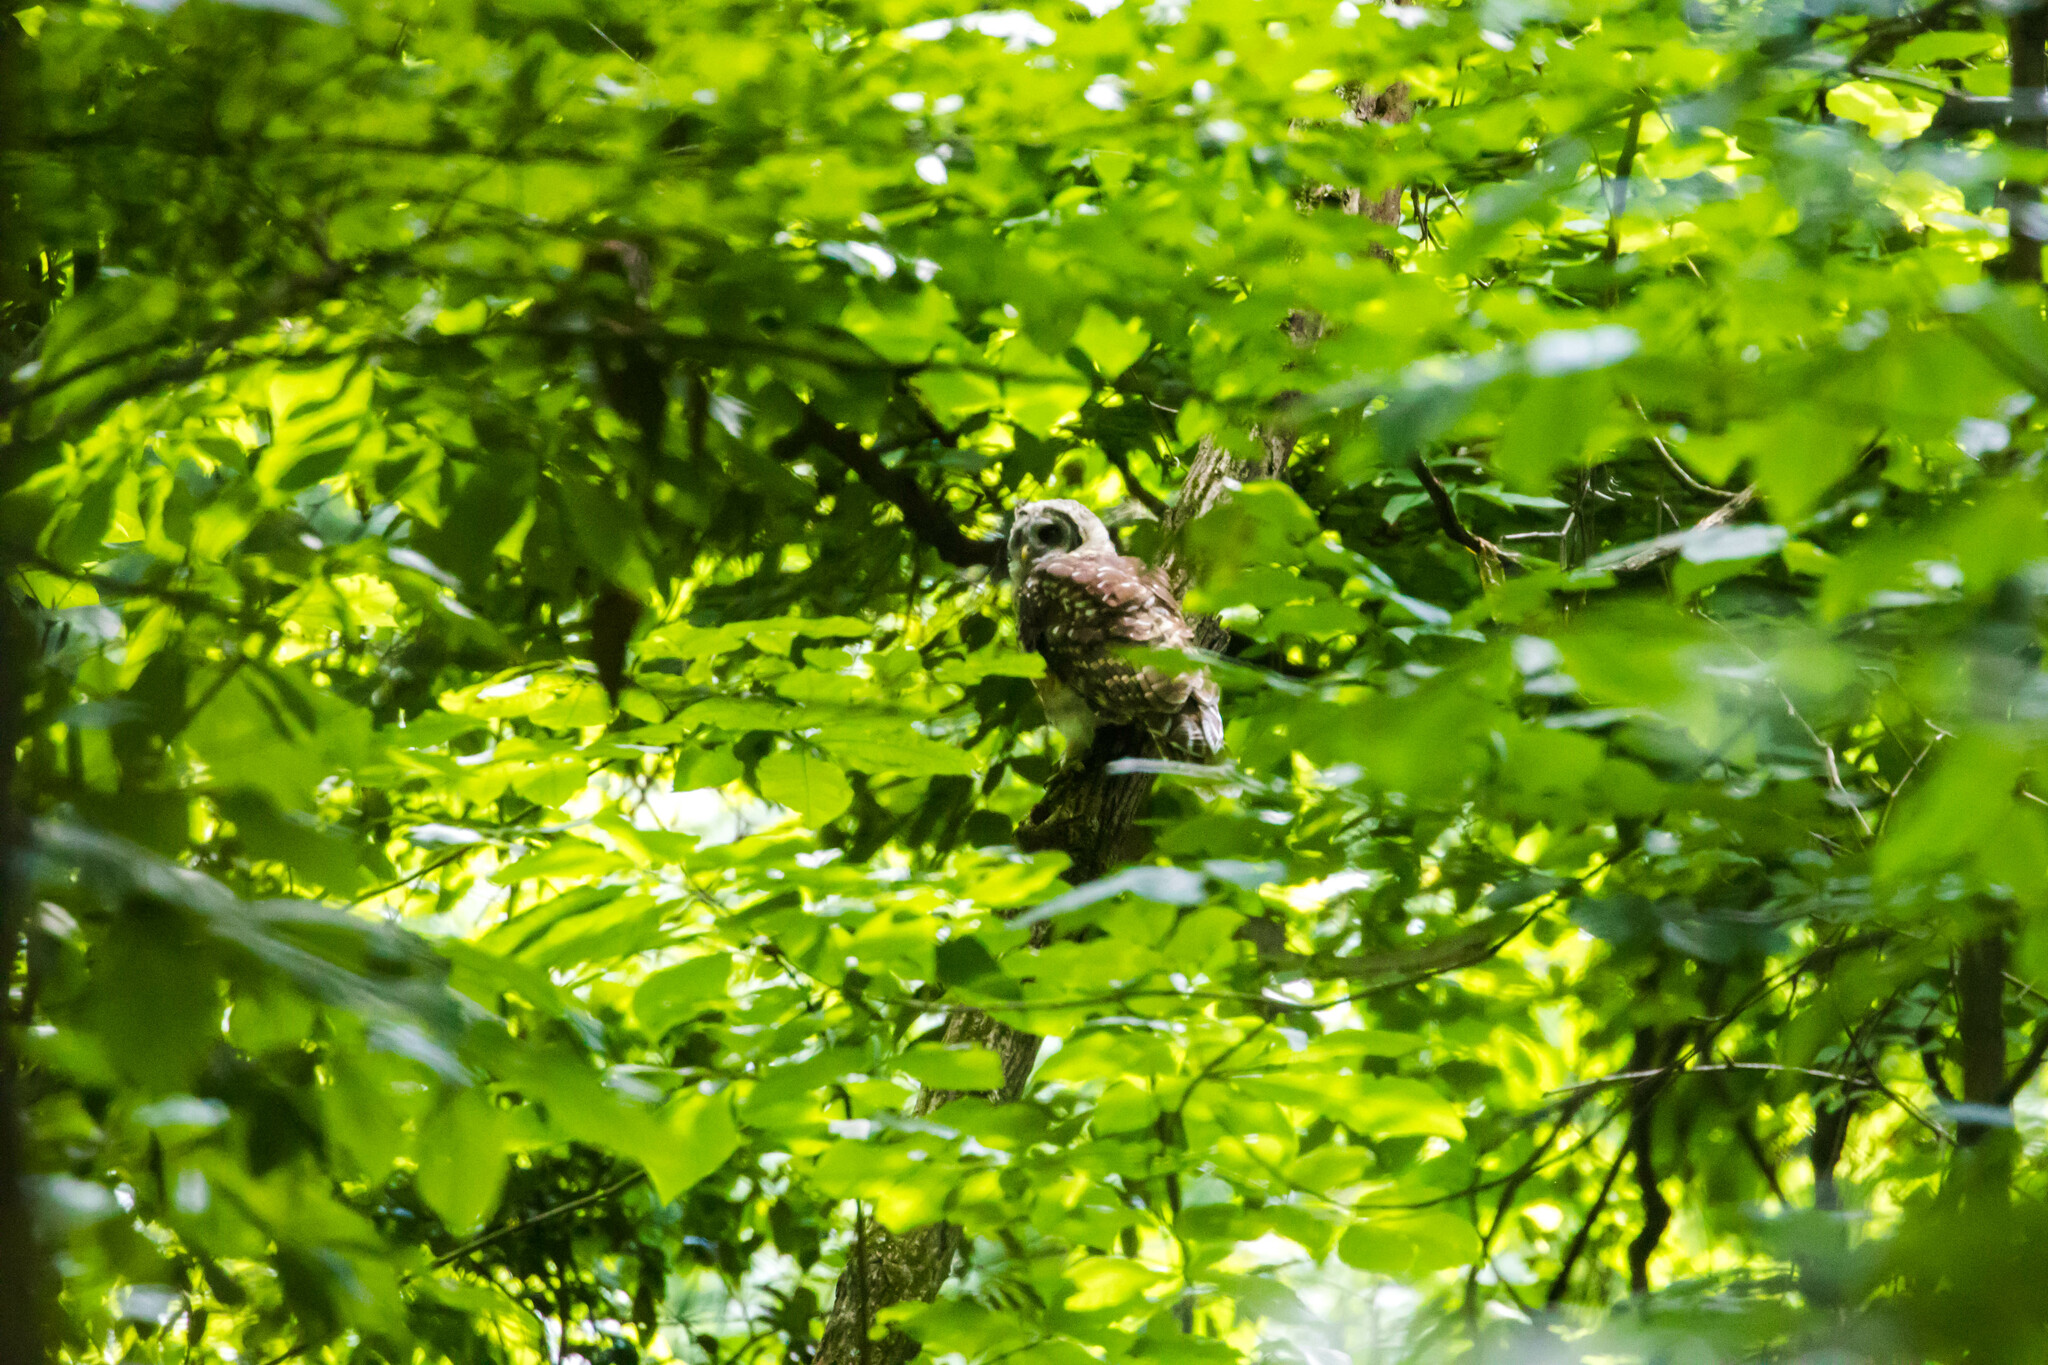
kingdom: Animalia
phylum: Chordata
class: Aves
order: Strigiformes
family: Strigidae
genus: Strix
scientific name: Strix varia
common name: Barred owl
